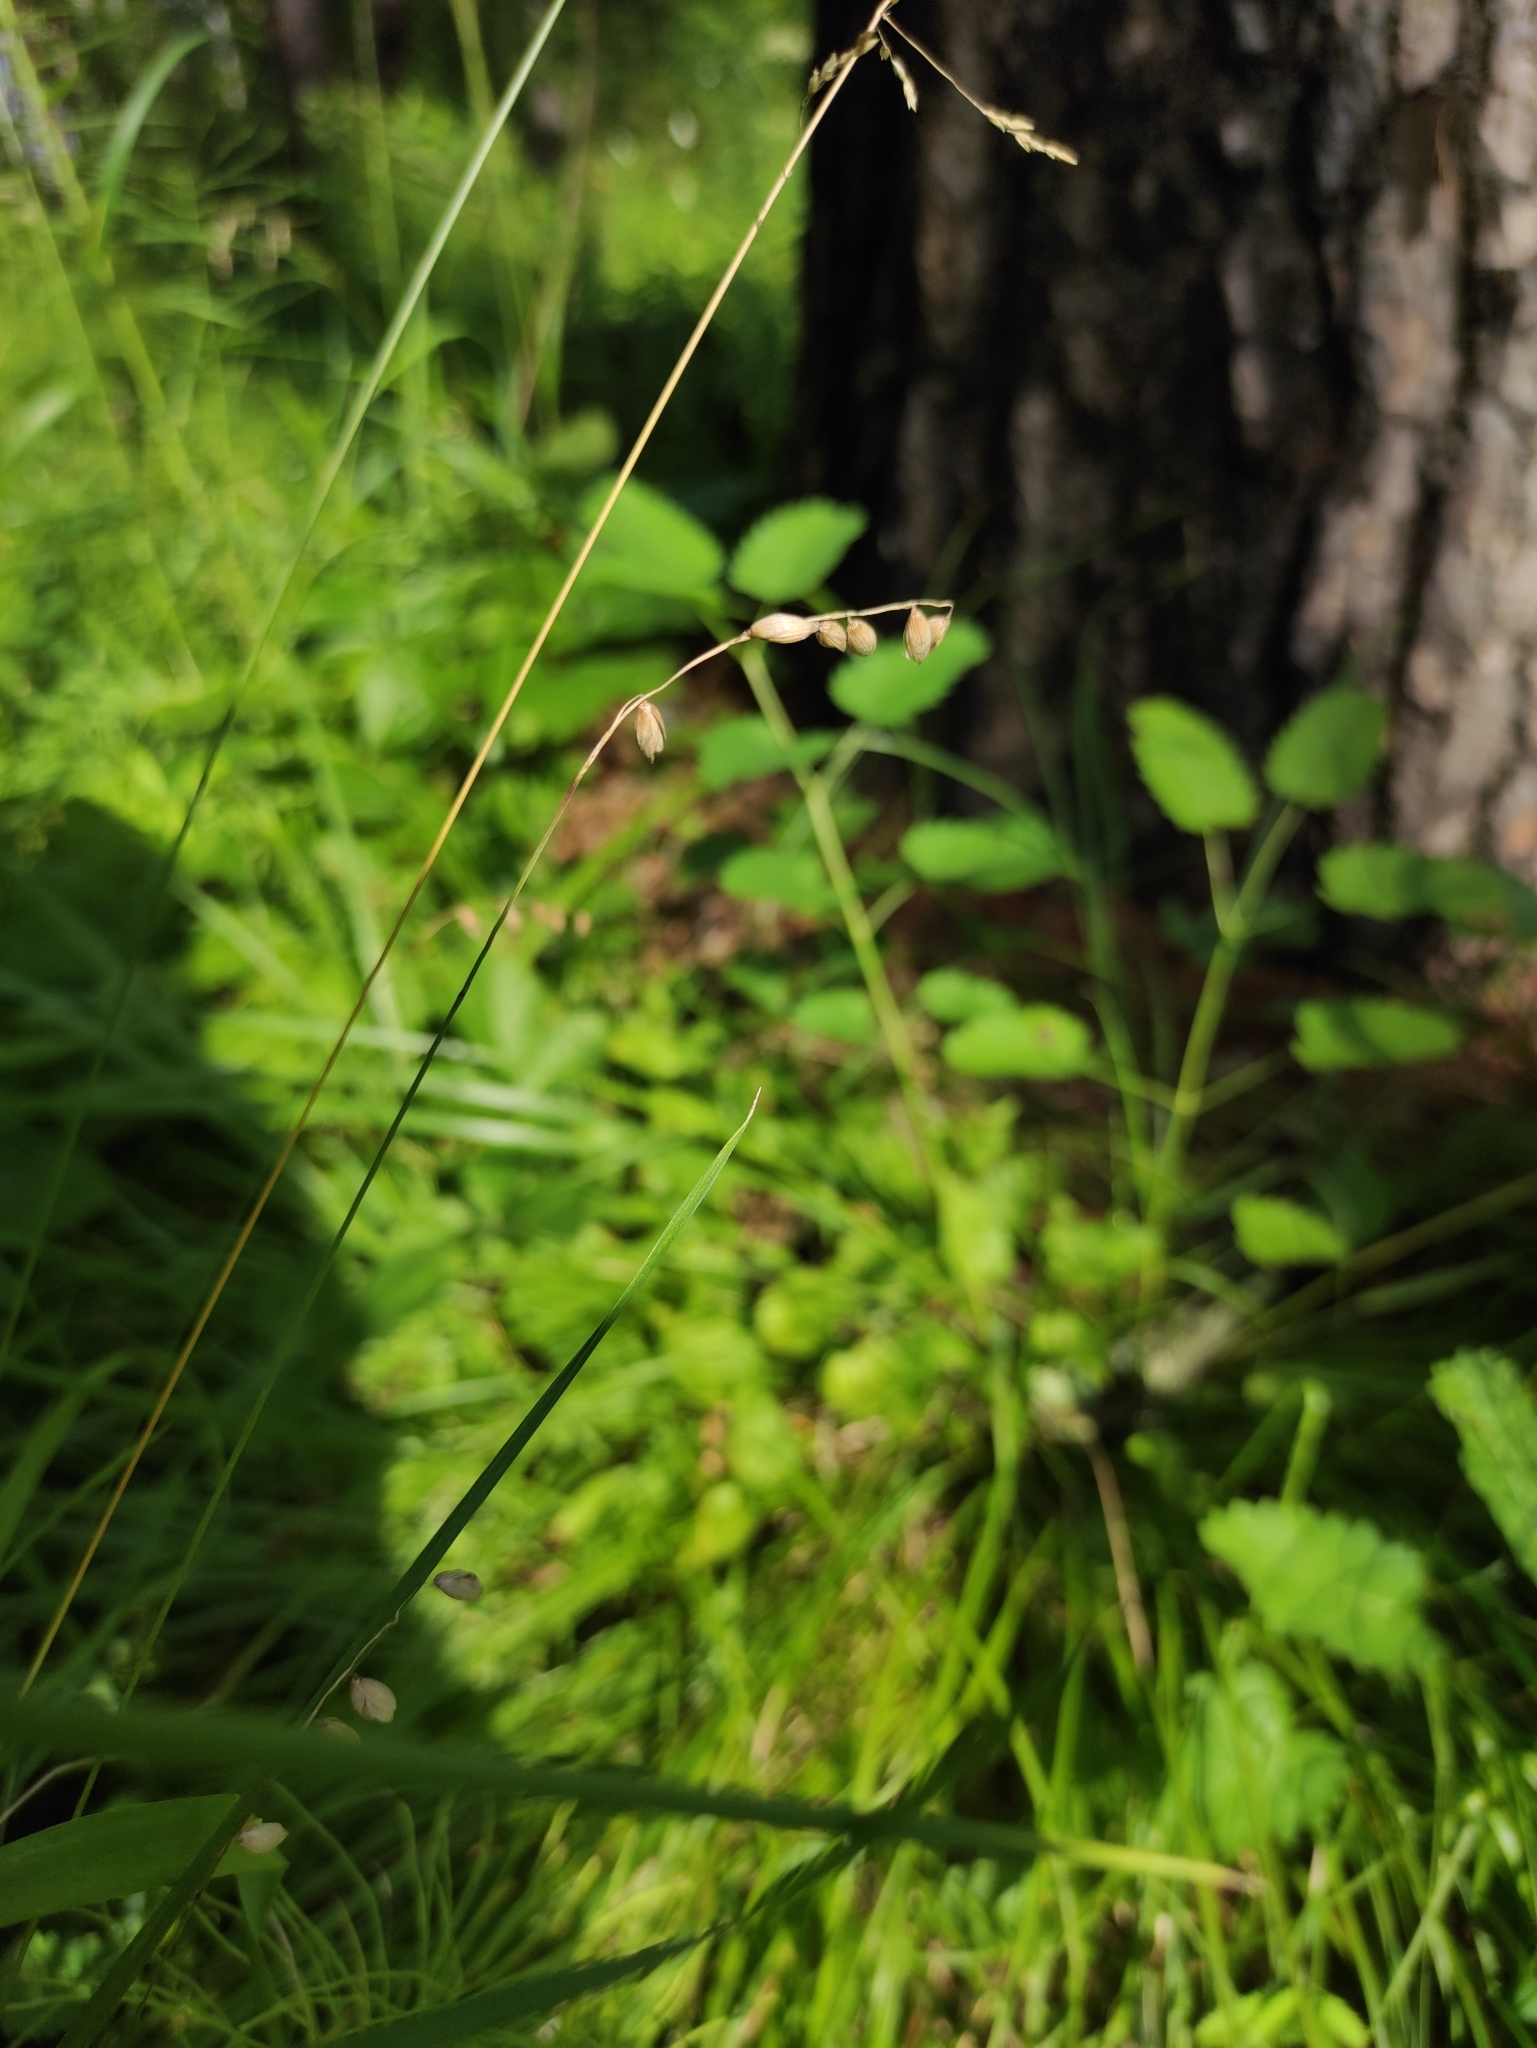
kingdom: Plantae
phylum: Tracheophyta
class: Liliopsida
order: Poales
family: Poaceae
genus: Melica
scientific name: Melica nutans
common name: Mountain melick
